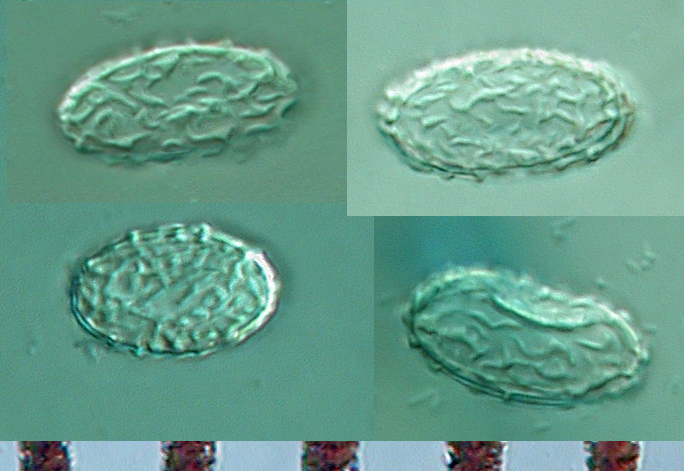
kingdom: Fungi
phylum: Ascomycota
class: Pezizomycetes
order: Pezizales
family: Pezizaceae
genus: Legaliana
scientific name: Legaliana badia
